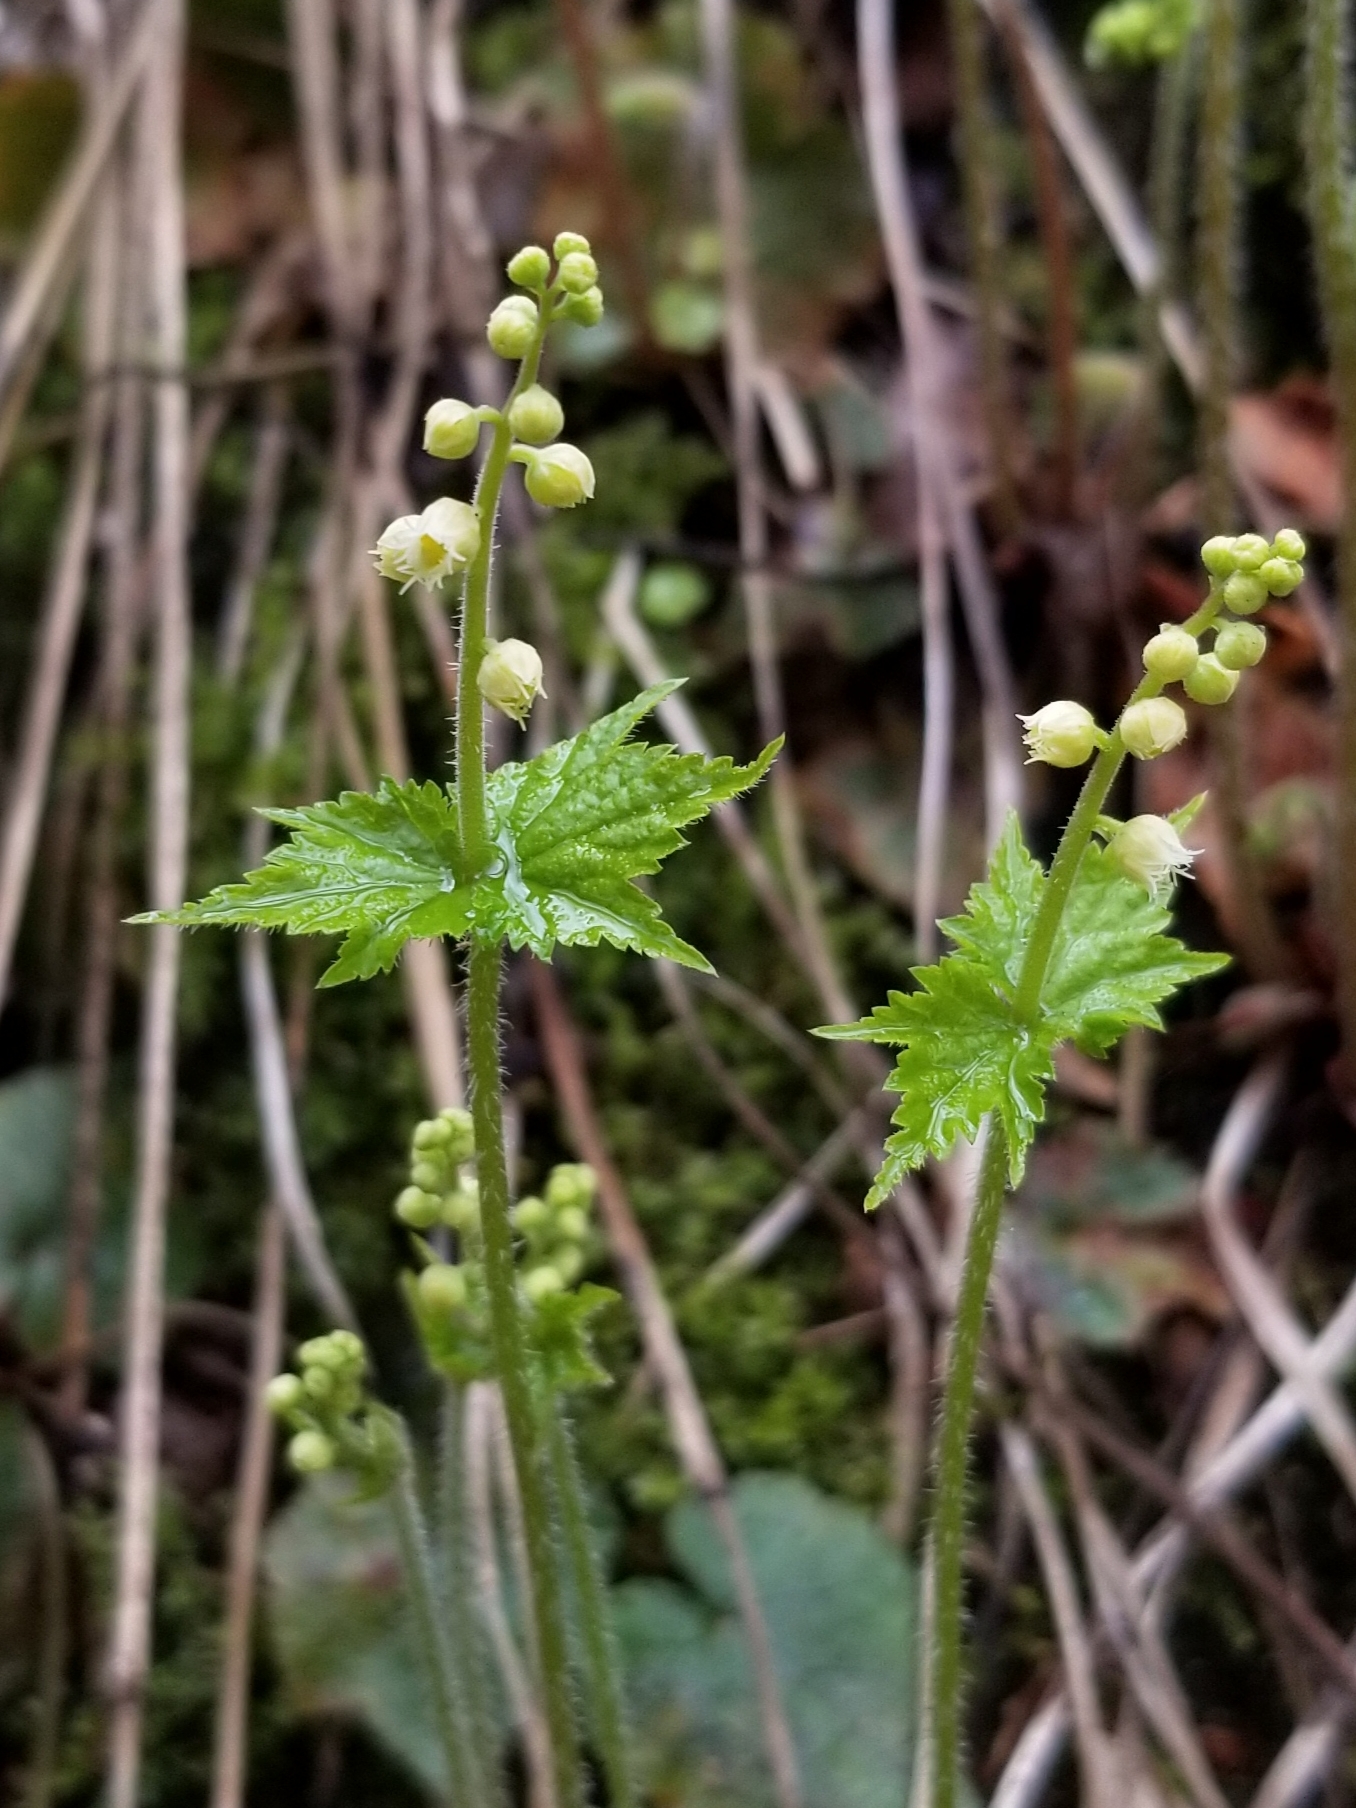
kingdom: Plantae
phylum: Tracheophyta
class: Magnoliopsida
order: Saxifragales
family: Saxifragaceae
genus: Mitella
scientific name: Mitella diphylla
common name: Coolwort
